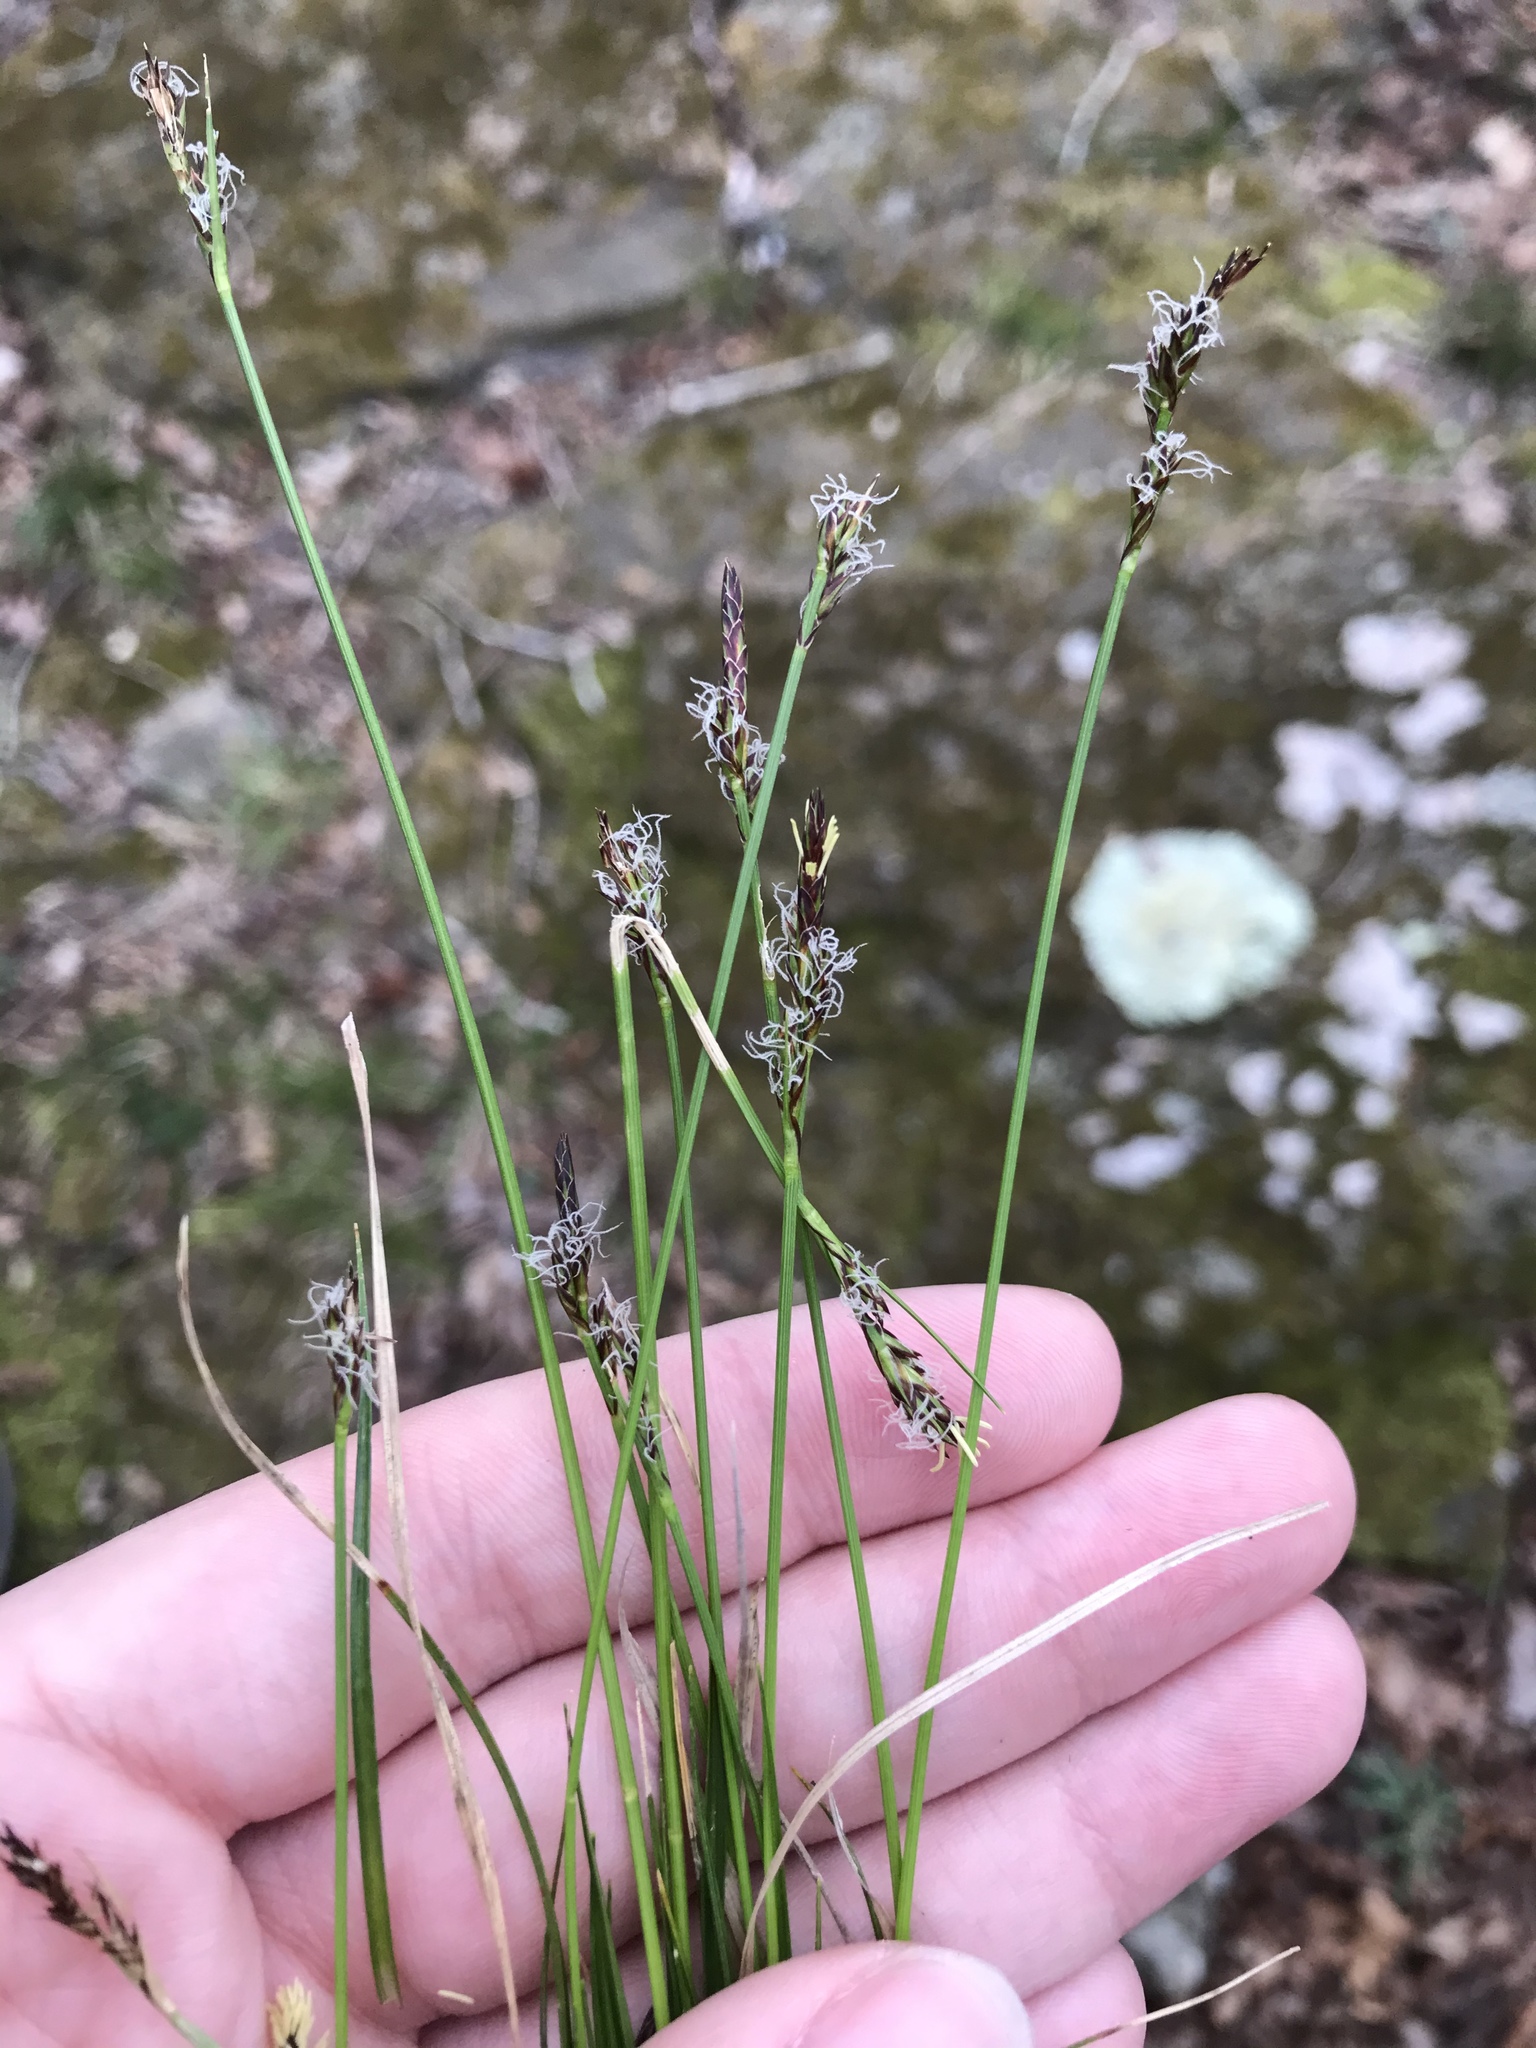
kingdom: Plantae
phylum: Tracheophyta
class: Liliopsida
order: Poales
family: Cyperaceae
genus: Carex
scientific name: Carex albicans
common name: Bellow-beaked sedge
